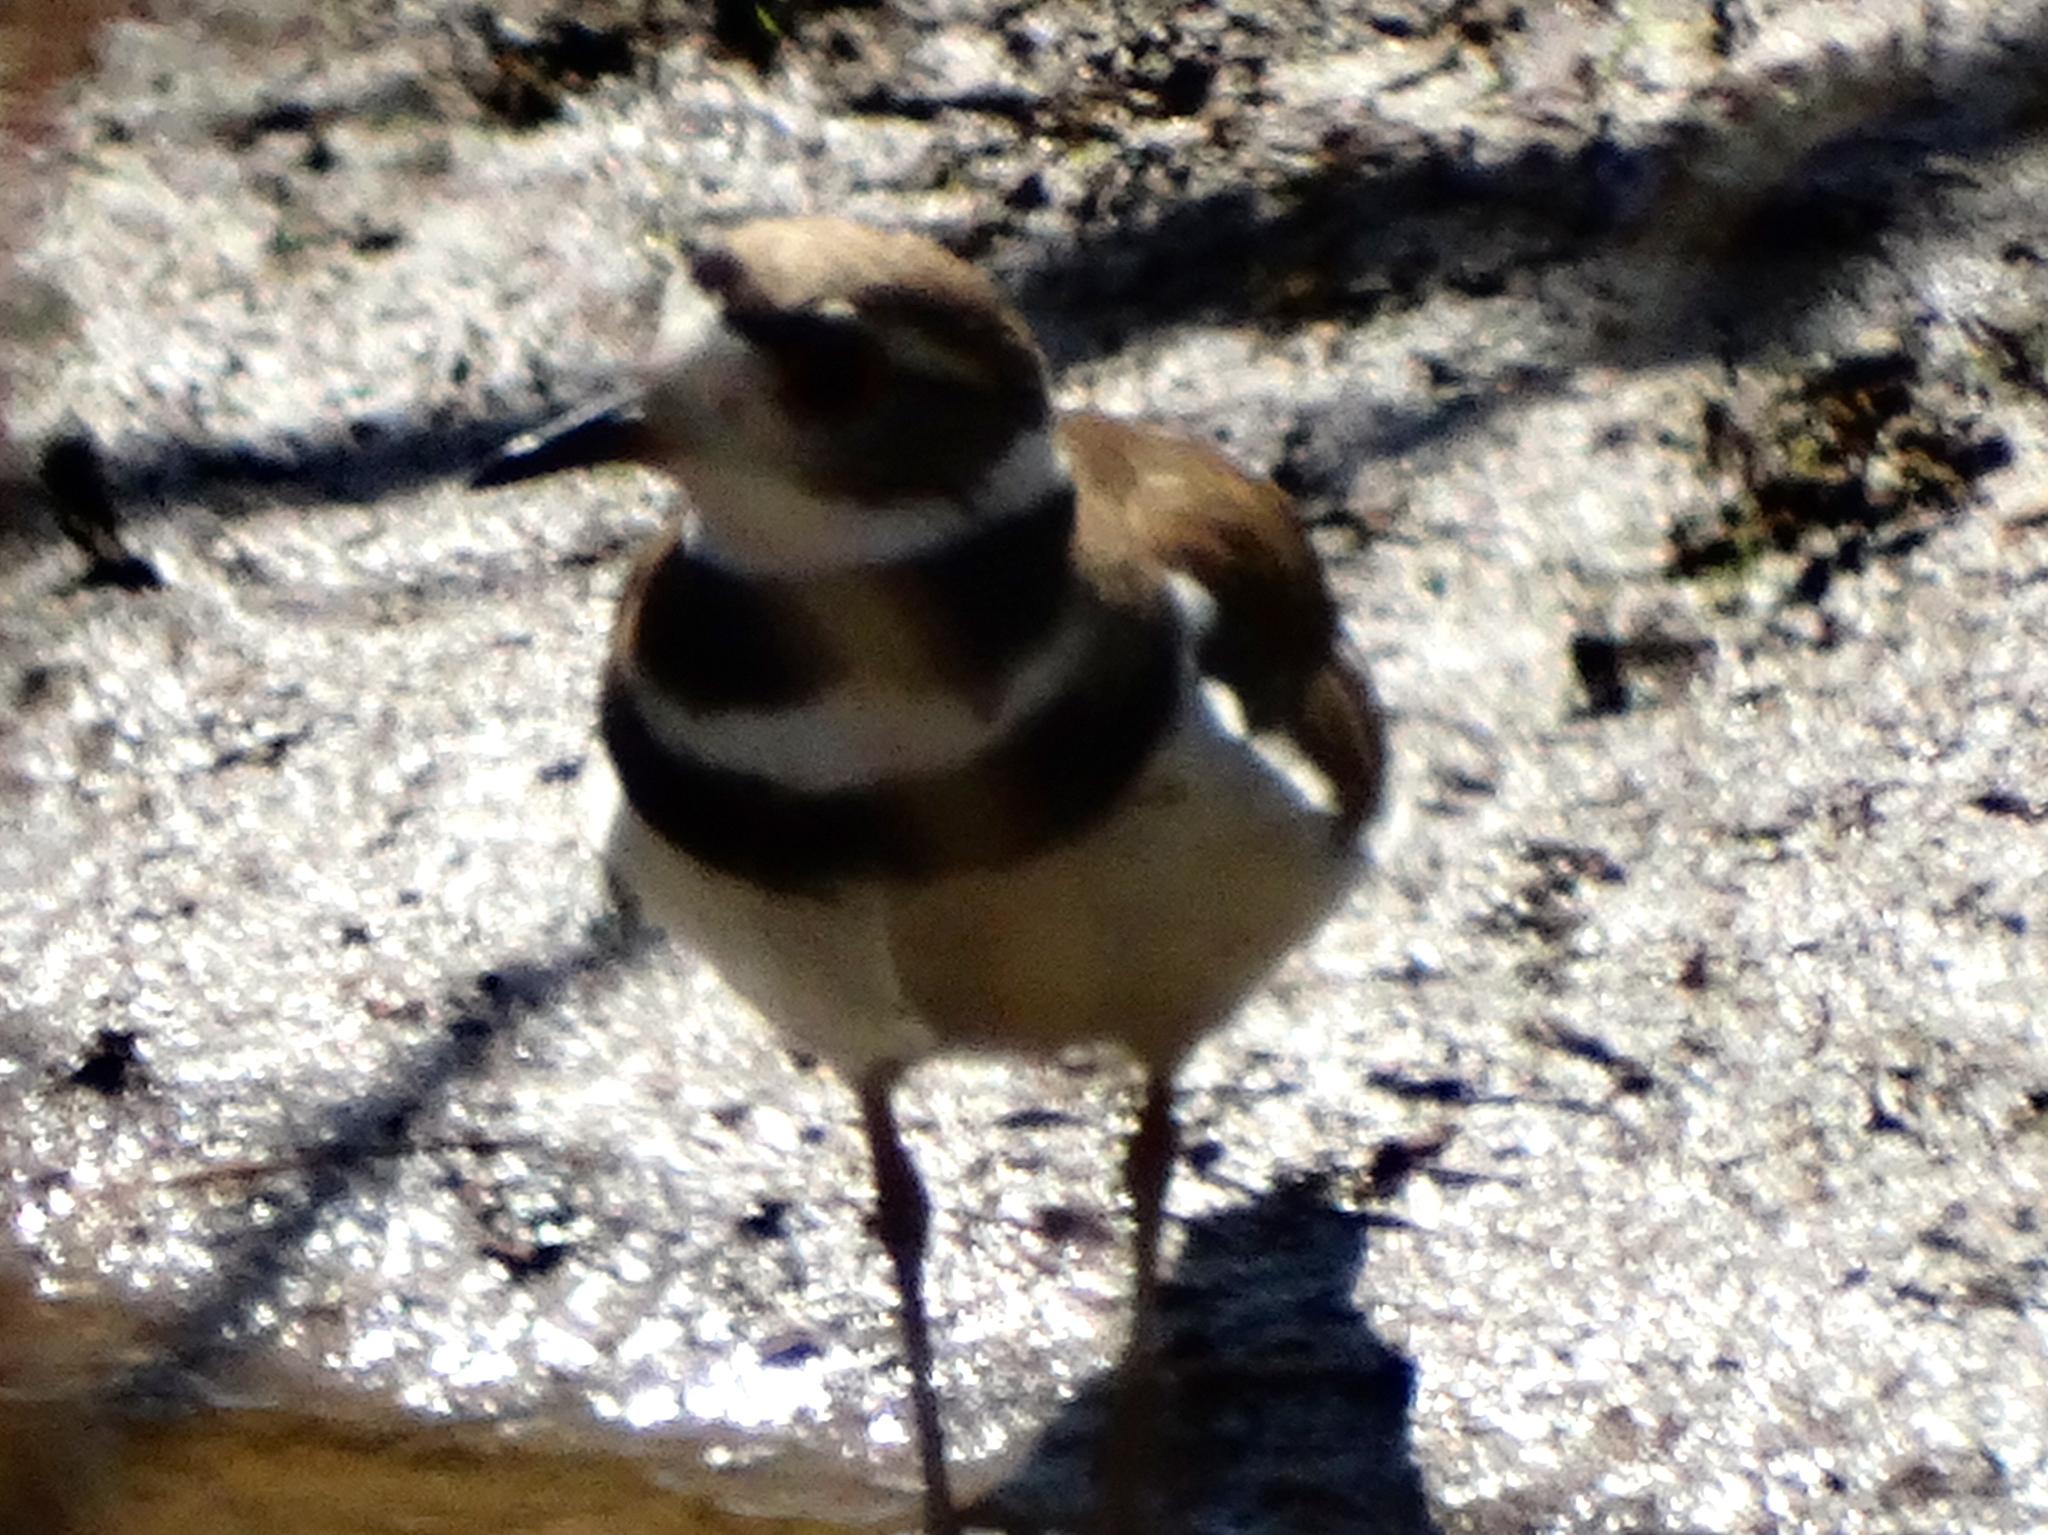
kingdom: Animalia
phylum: Chordata
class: Aves
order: Charadriiformes
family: Charadriidae
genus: Charadrius
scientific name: Charadrius vociferus
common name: Killdeer
